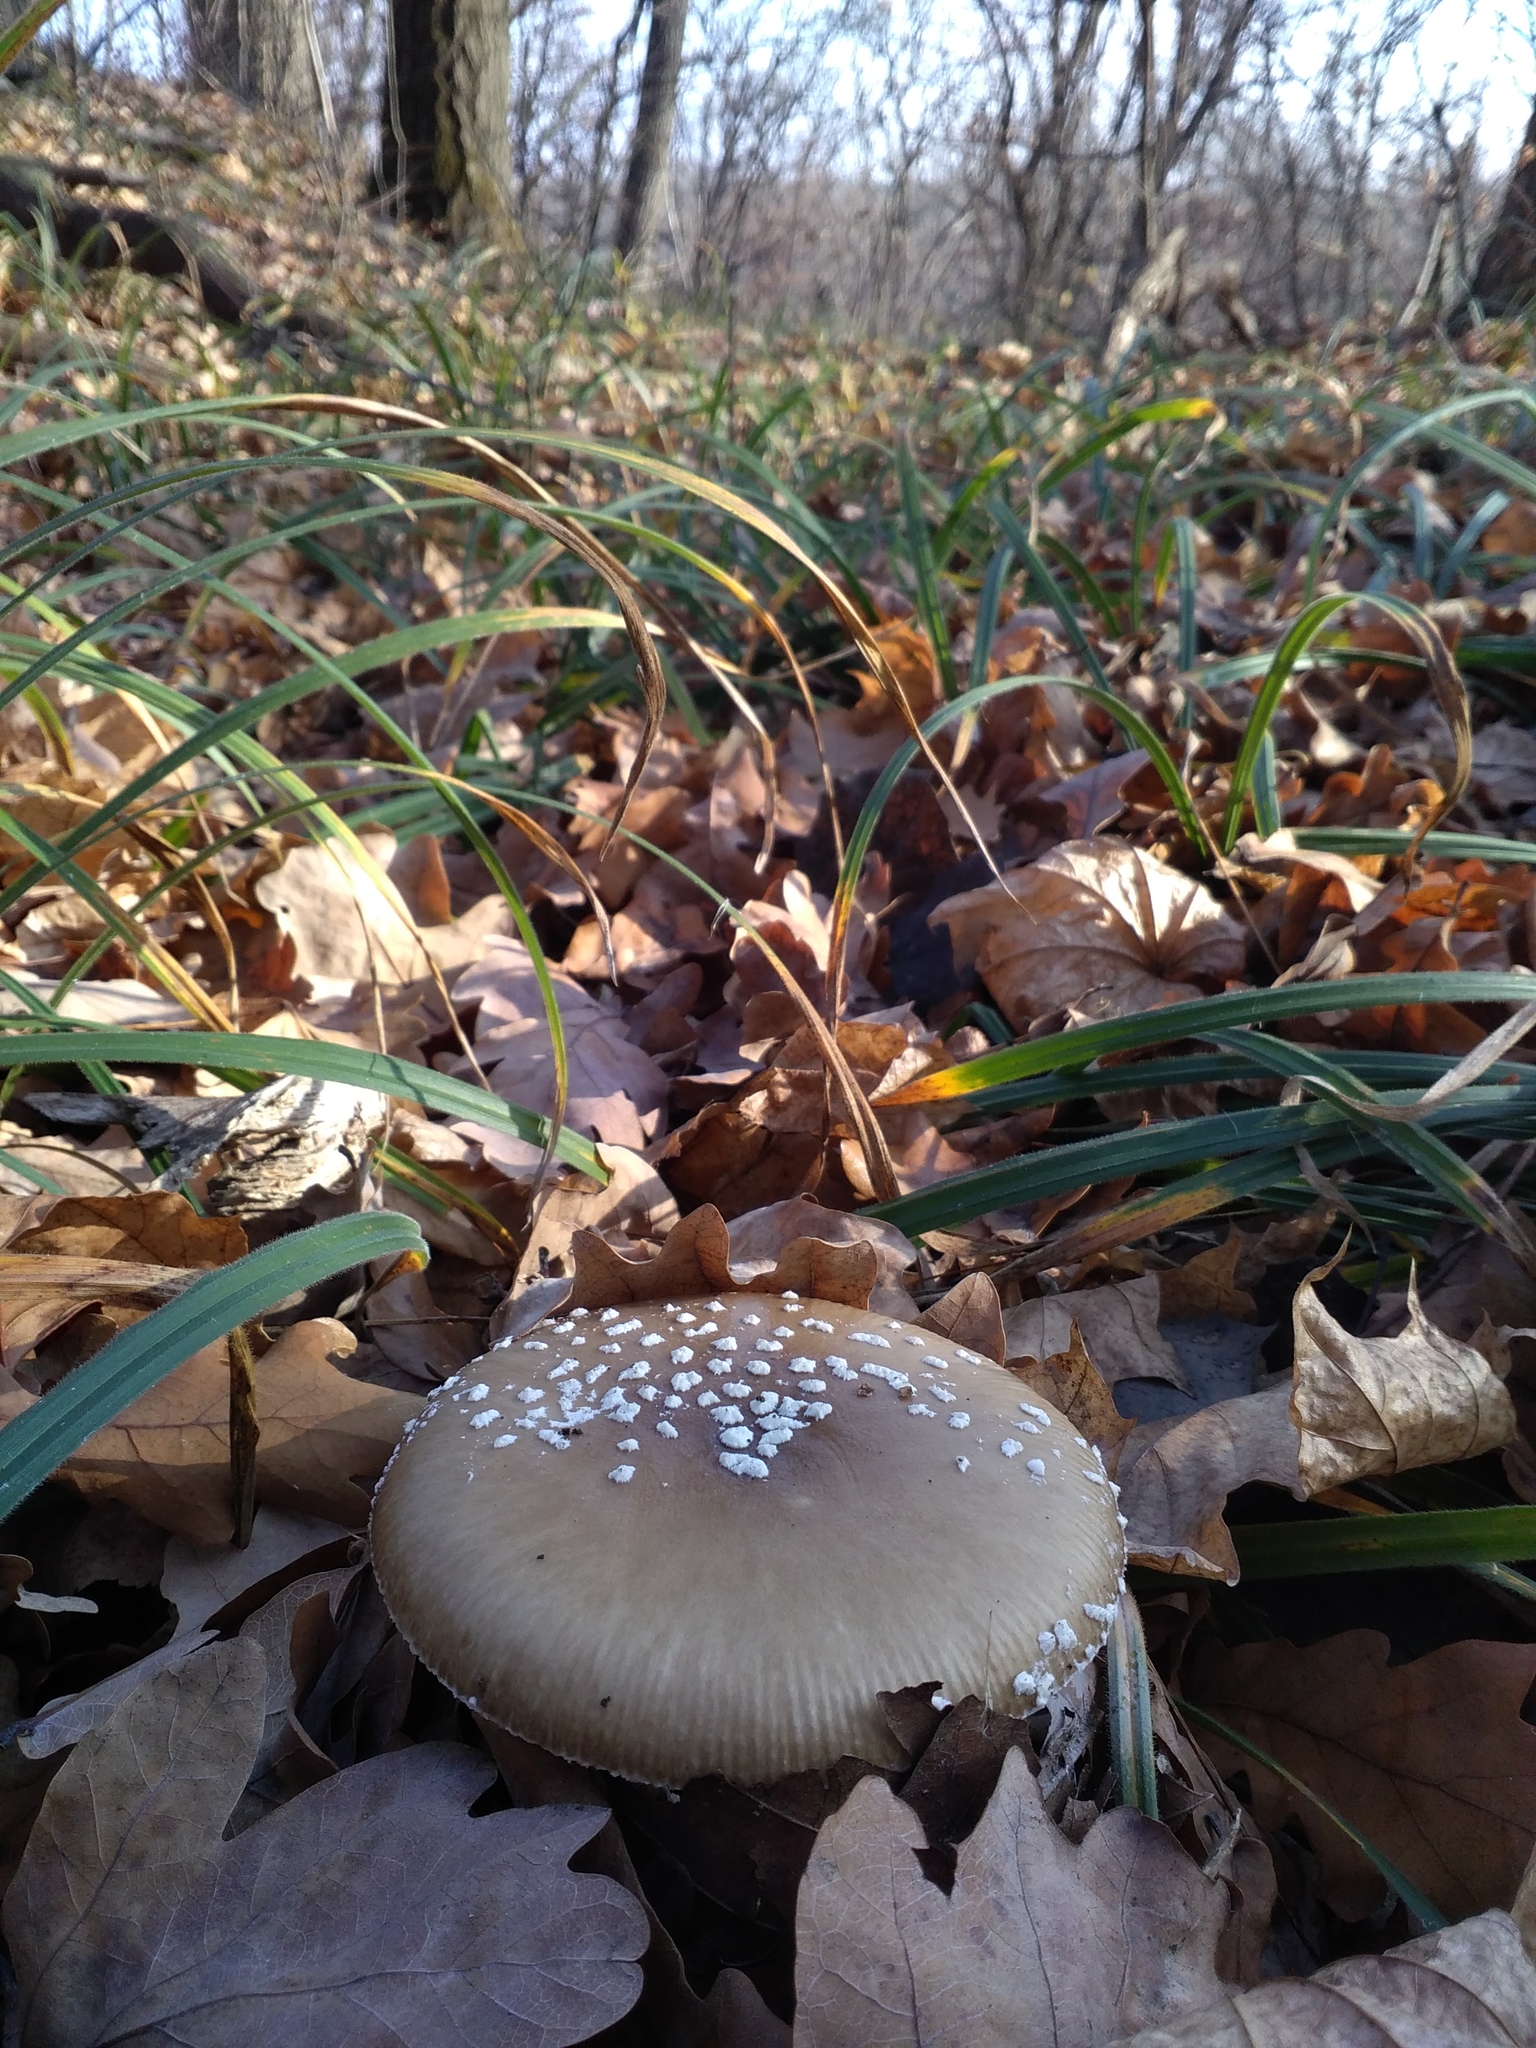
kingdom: Fungi
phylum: Basidiomycota
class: Agaricomycetes
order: Agaricales
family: Amanitaceae
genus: Amanita
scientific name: Amanita pantherina
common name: Panthercap
